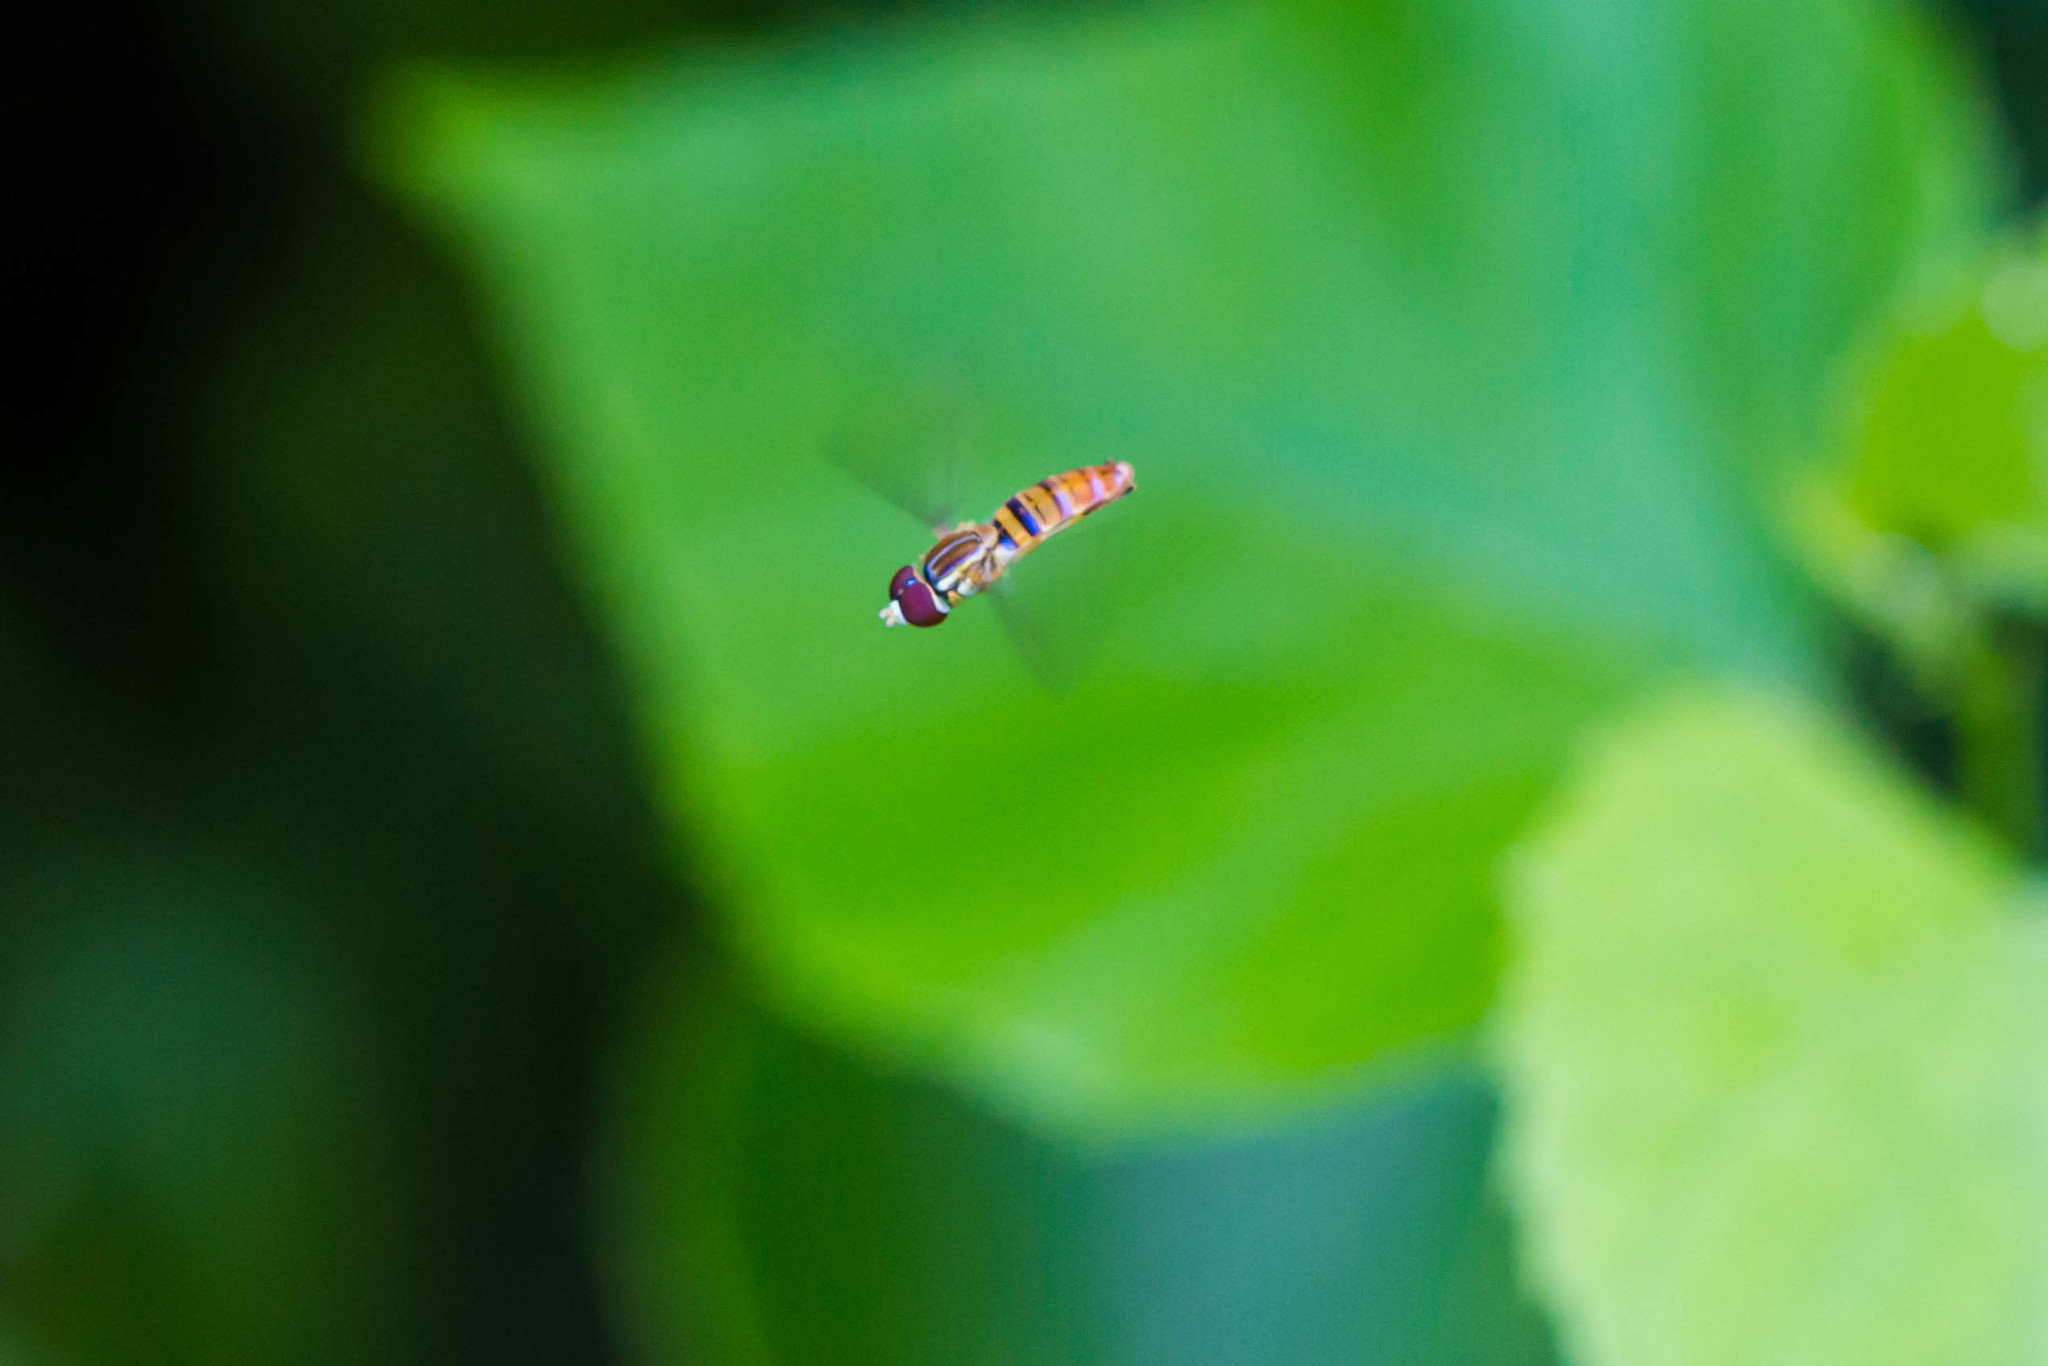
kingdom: Animalia
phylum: Arthropoda
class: Insecta
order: Diptera
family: Syrphidae
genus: Toxomerus
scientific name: Toxomerus politus
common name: Maize calligrapher
